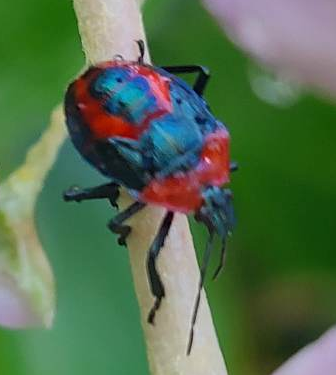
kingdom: Animalia
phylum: Arthropoda
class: Insecta
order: Hemiptera
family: Pentatomidae
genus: Eocanthecoma
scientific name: Eocanthecoma furcellata
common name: Stink bug
